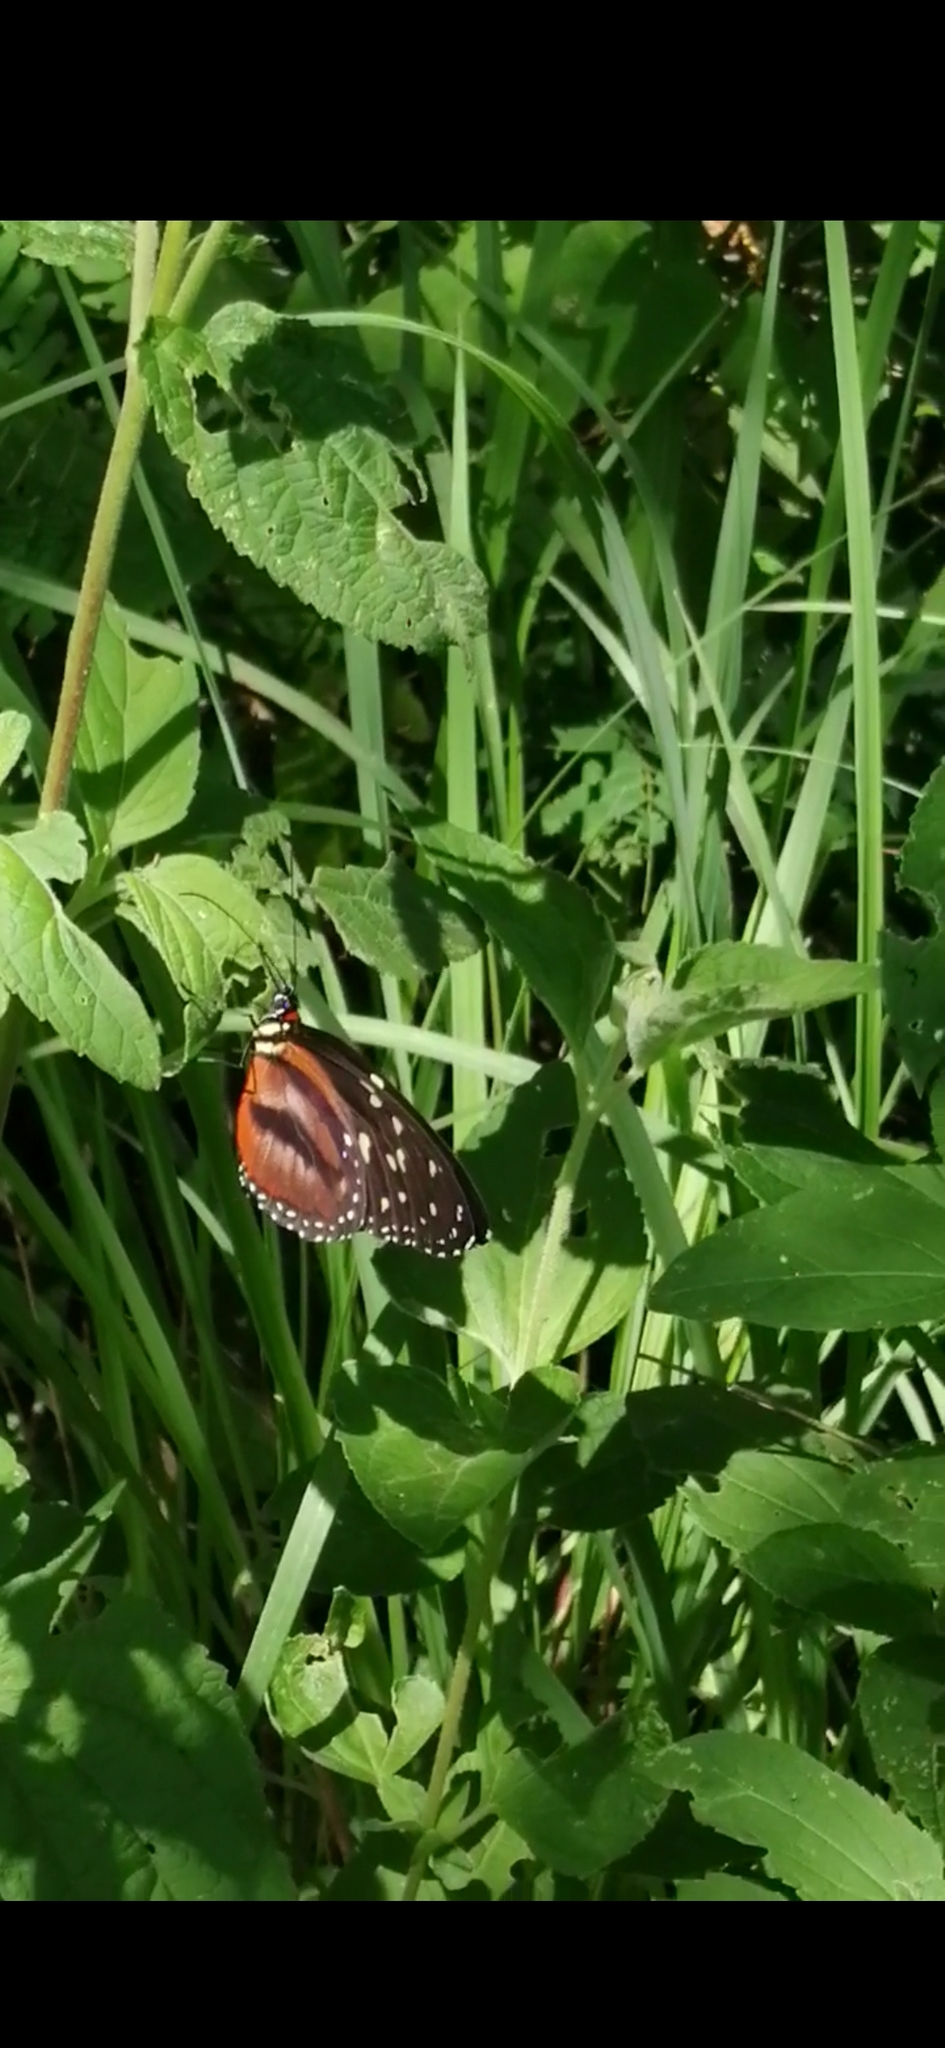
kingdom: Animalia
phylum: Arthropoda
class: Insecta
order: Lepidoptera
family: Nymphalidae
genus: Tithorea
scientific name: Tithorea tarricina
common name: Cream-spotted tigerwing
